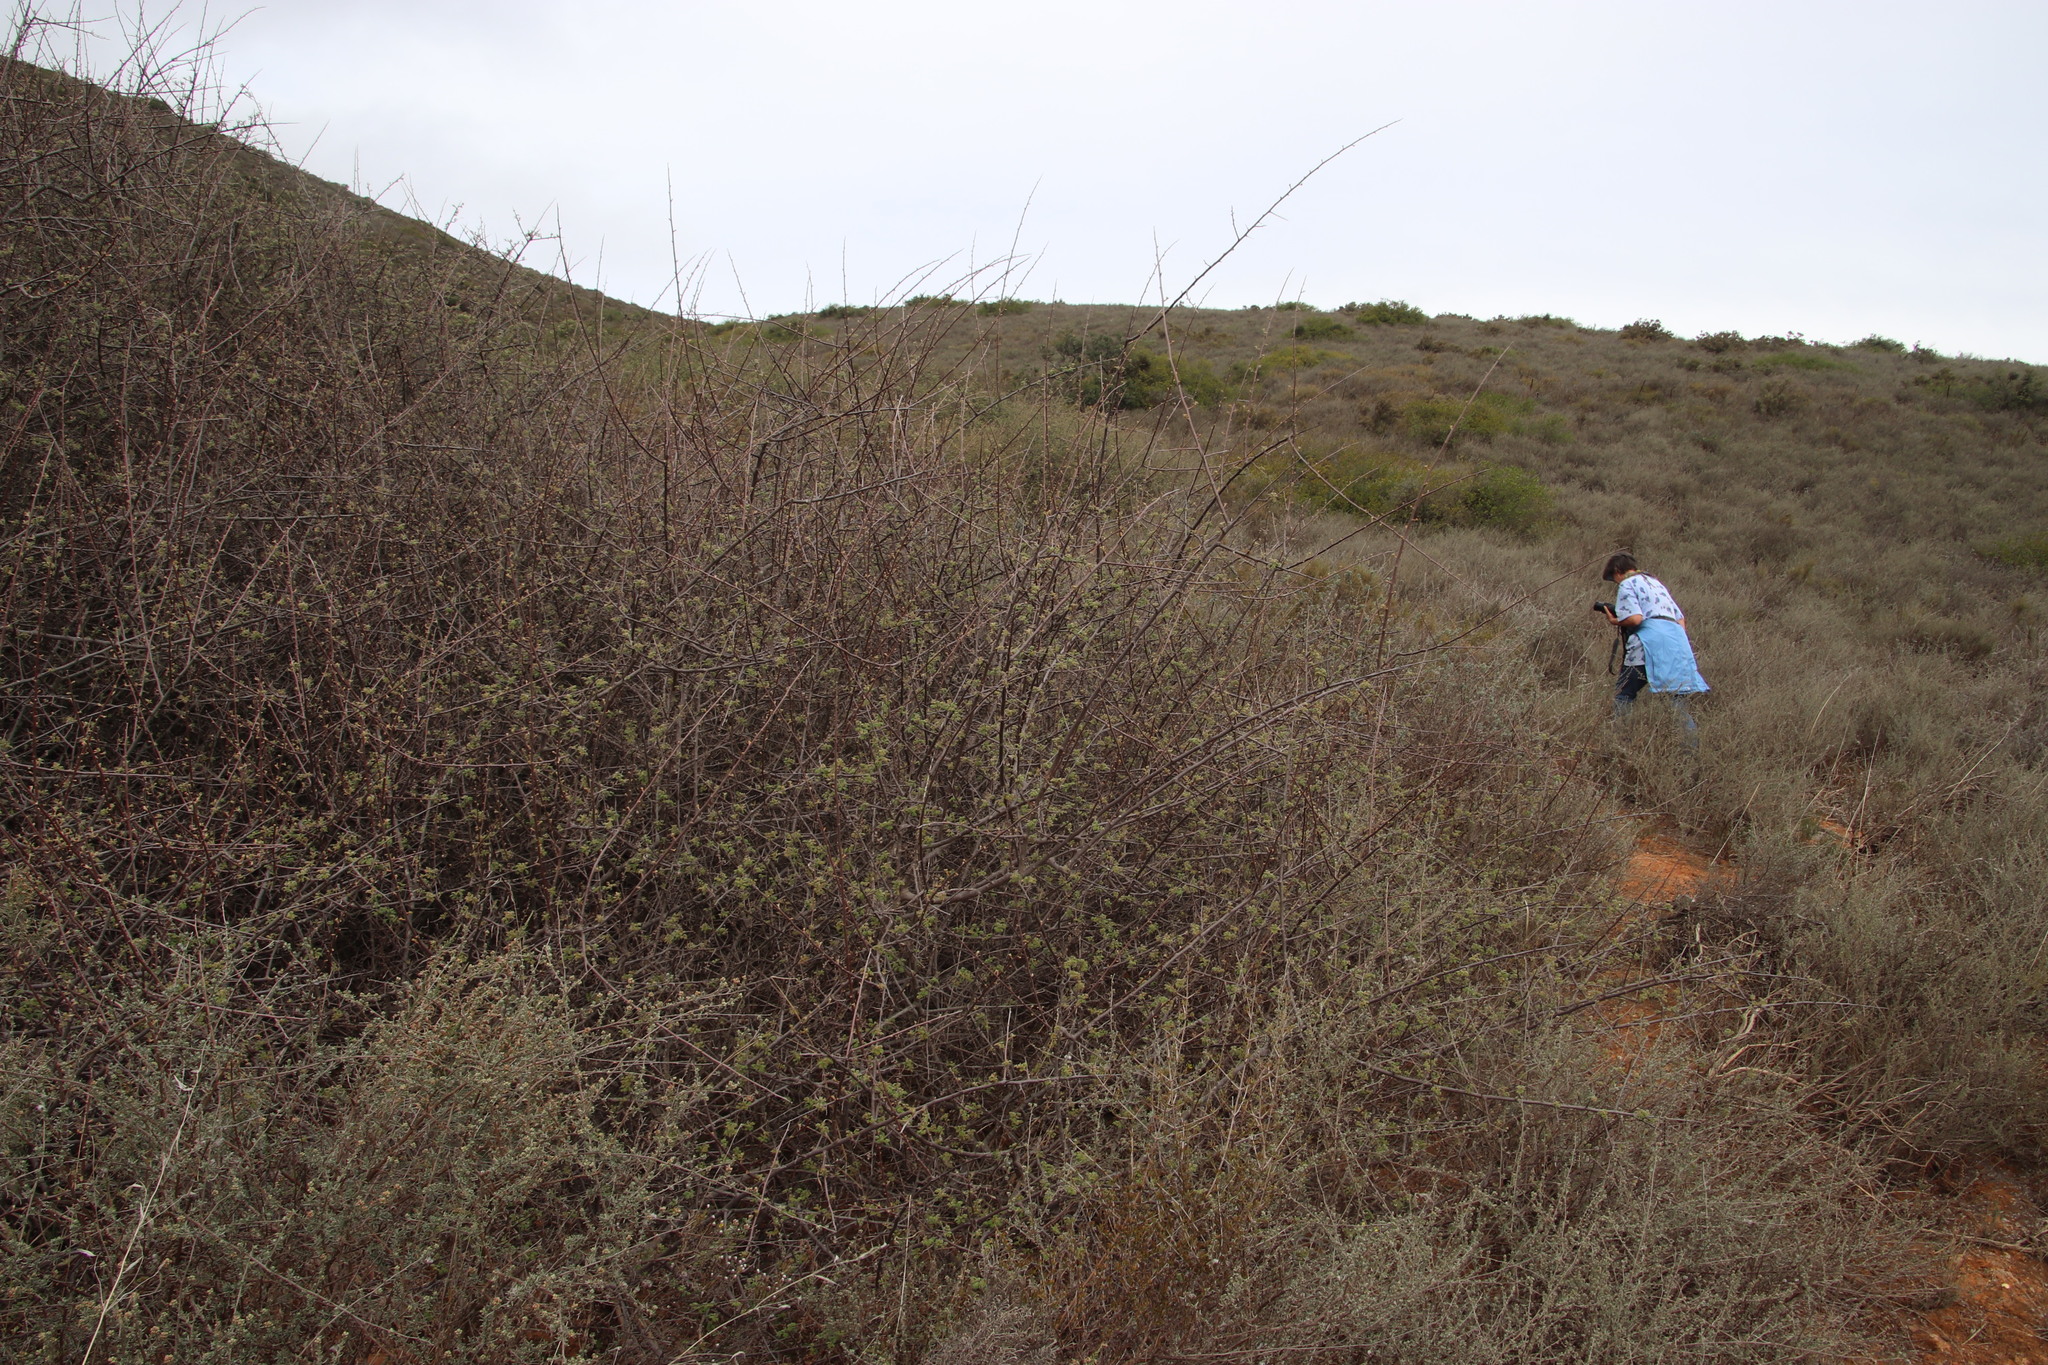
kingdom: Plantae
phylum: Tracheophyta
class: Magnoliopsida
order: Sapindales
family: Anacardiaceae
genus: Searsia
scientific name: Searsia incisa
